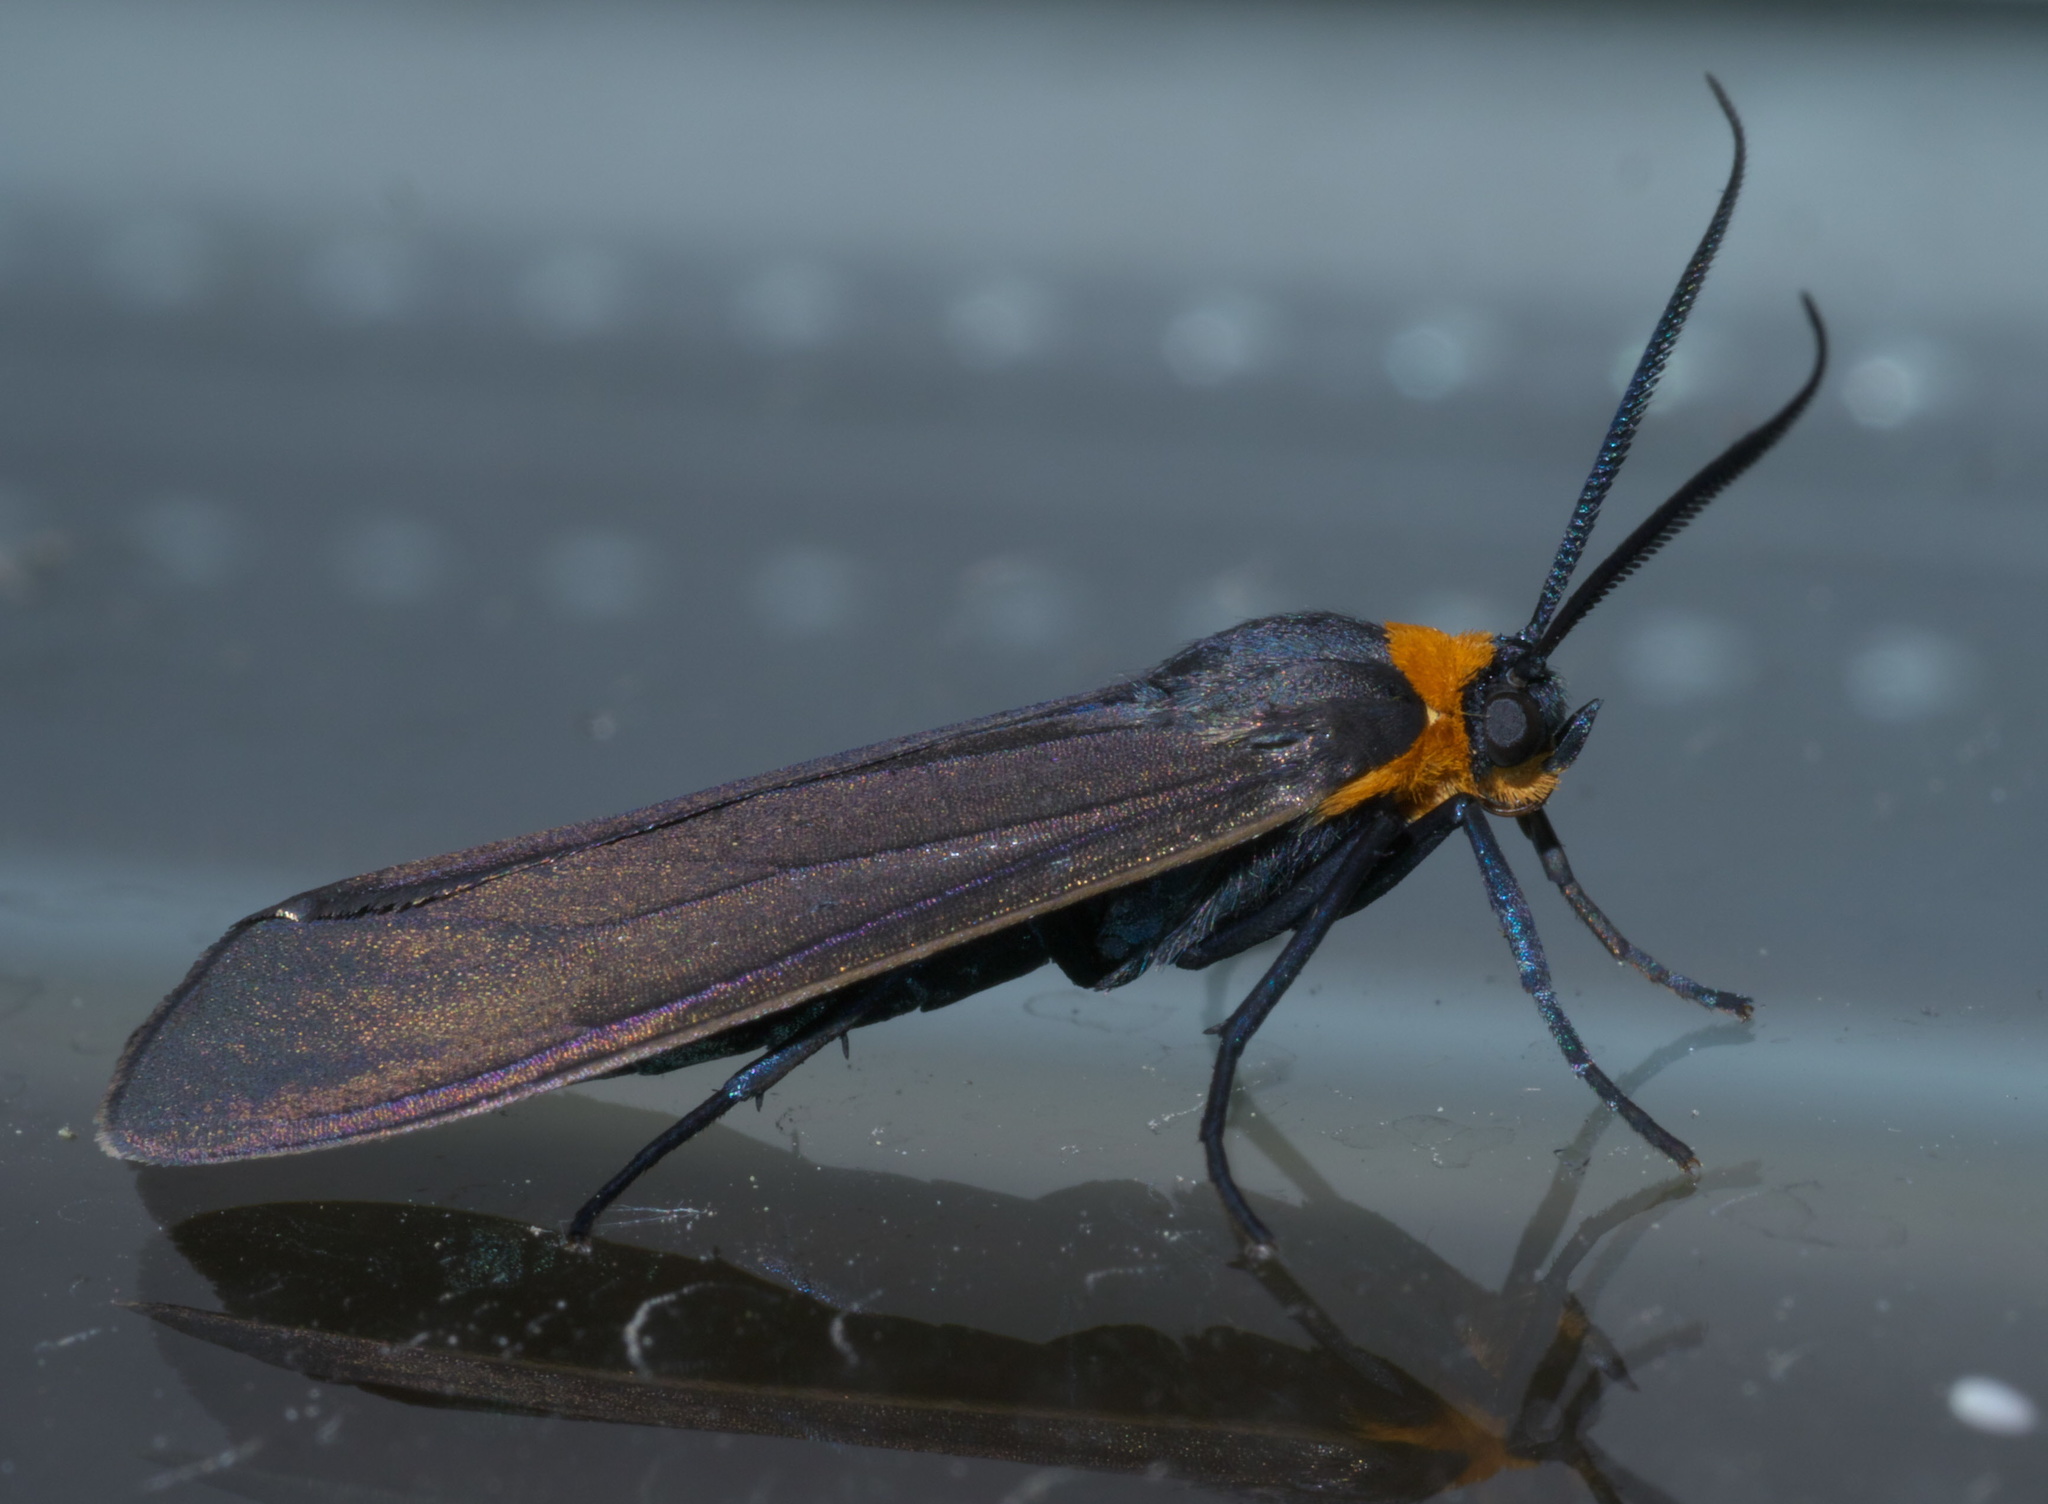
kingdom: Animalia
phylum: Arthropoda
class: Insecta
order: Lepidoptera
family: Erebidae
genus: Cisseps
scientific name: Cisseps fulvicollis
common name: Yellow-collared scape moth
